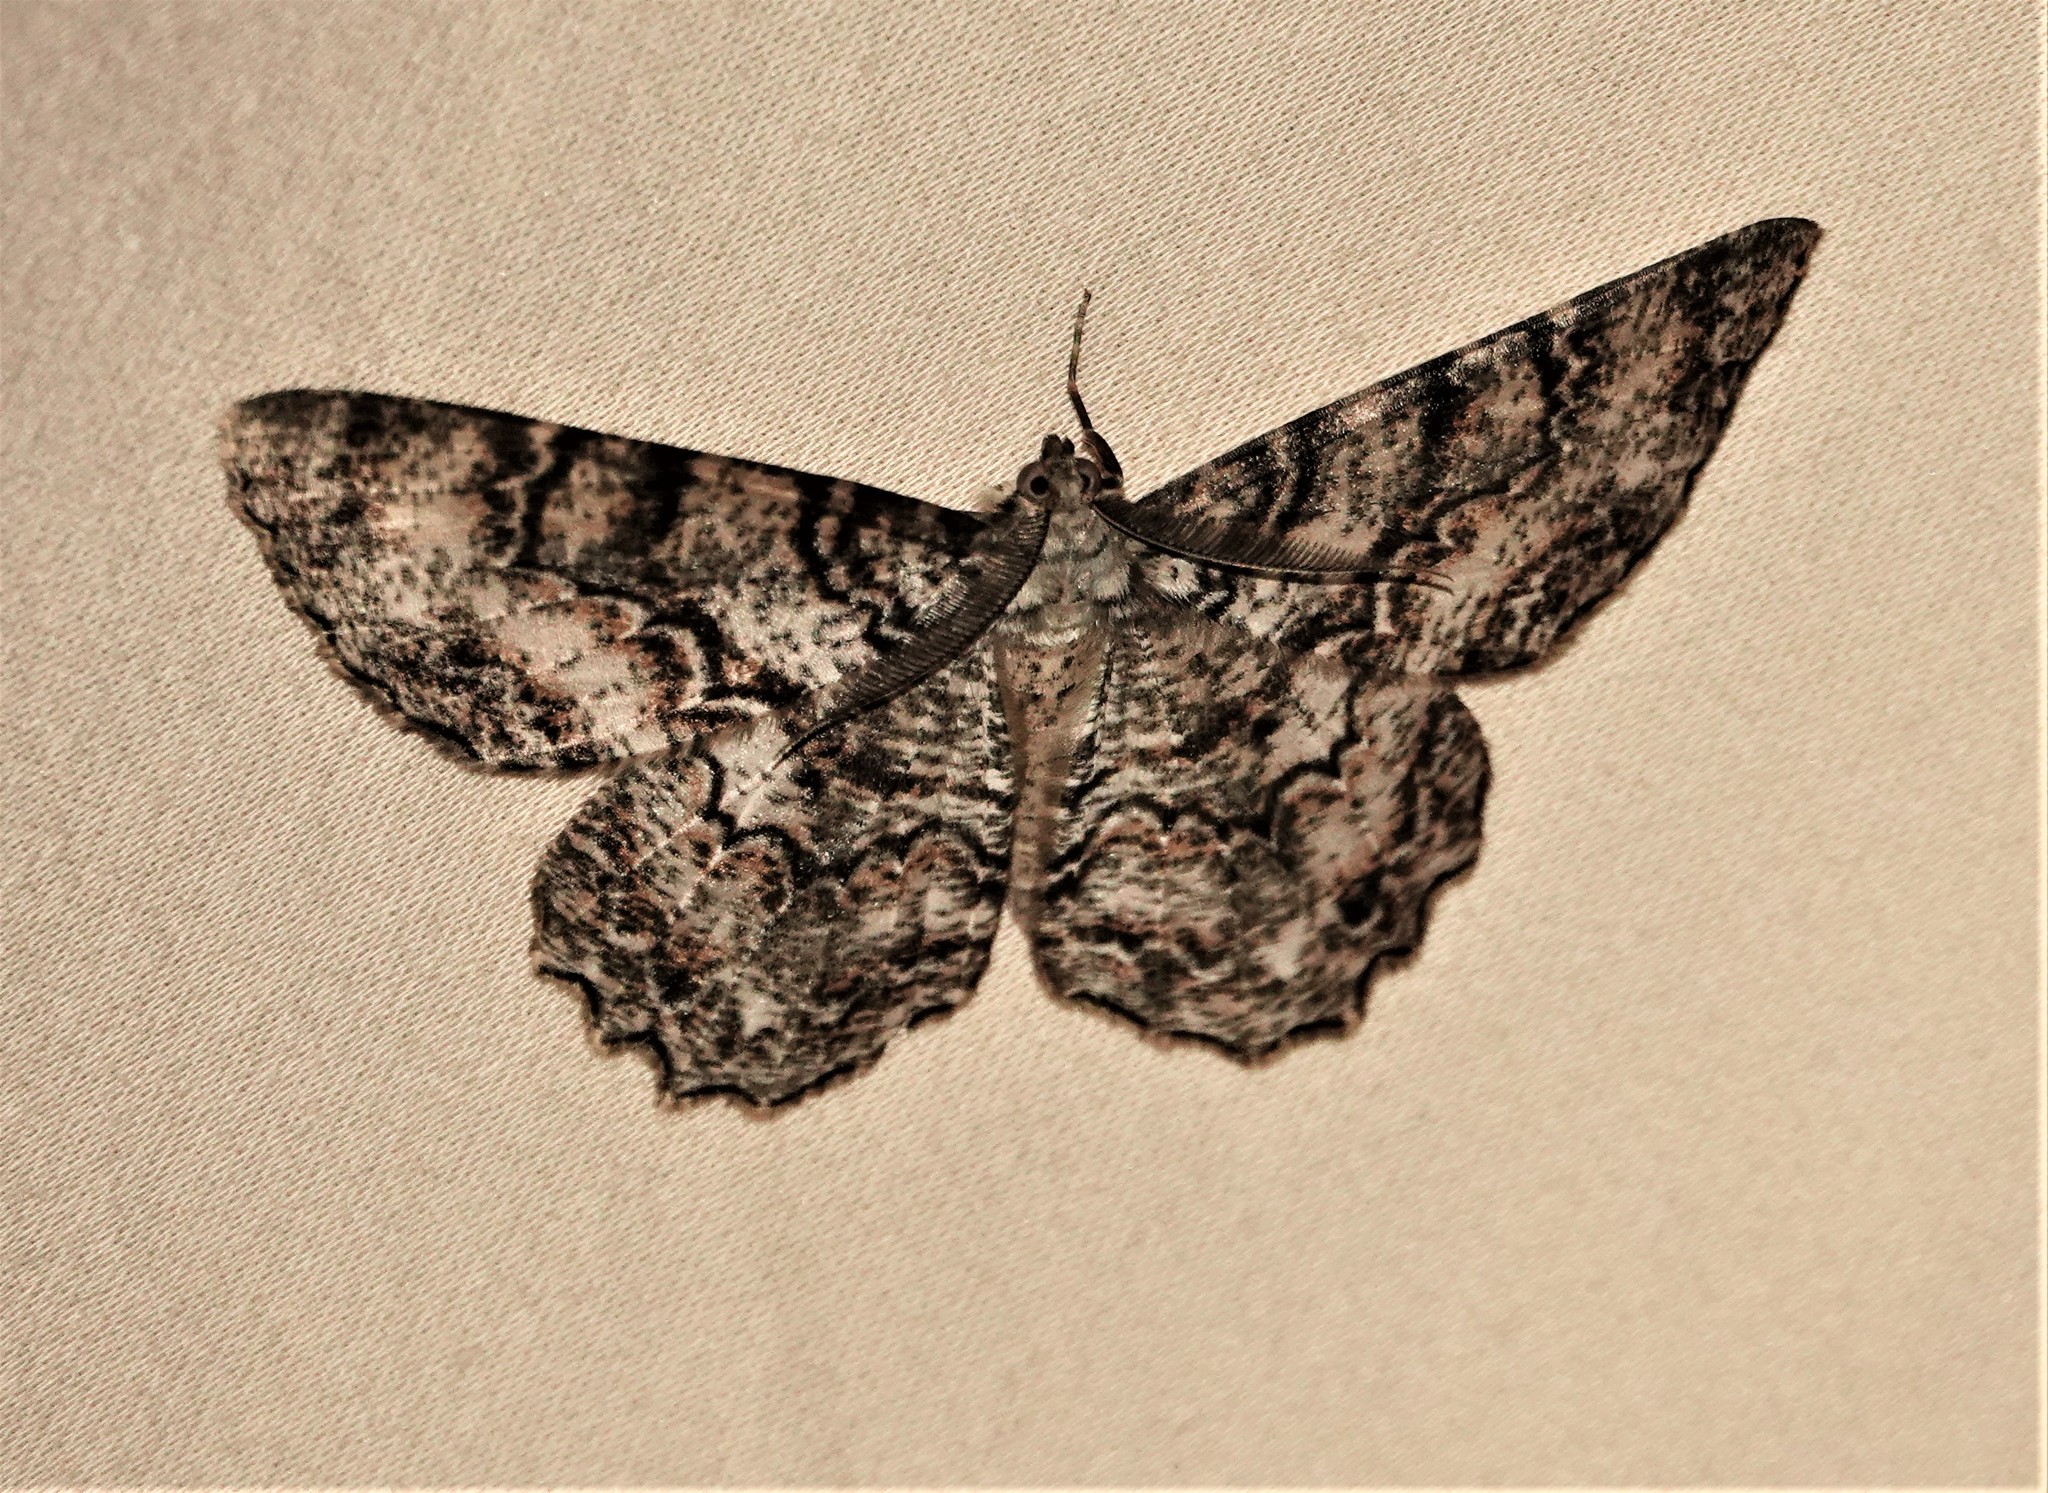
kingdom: Animalia
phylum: Arthropoda
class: Insecta
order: Lepidoptera
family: Geometridae
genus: Epimecis
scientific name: Epimecis hortaria
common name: Tulip-tree beauty
